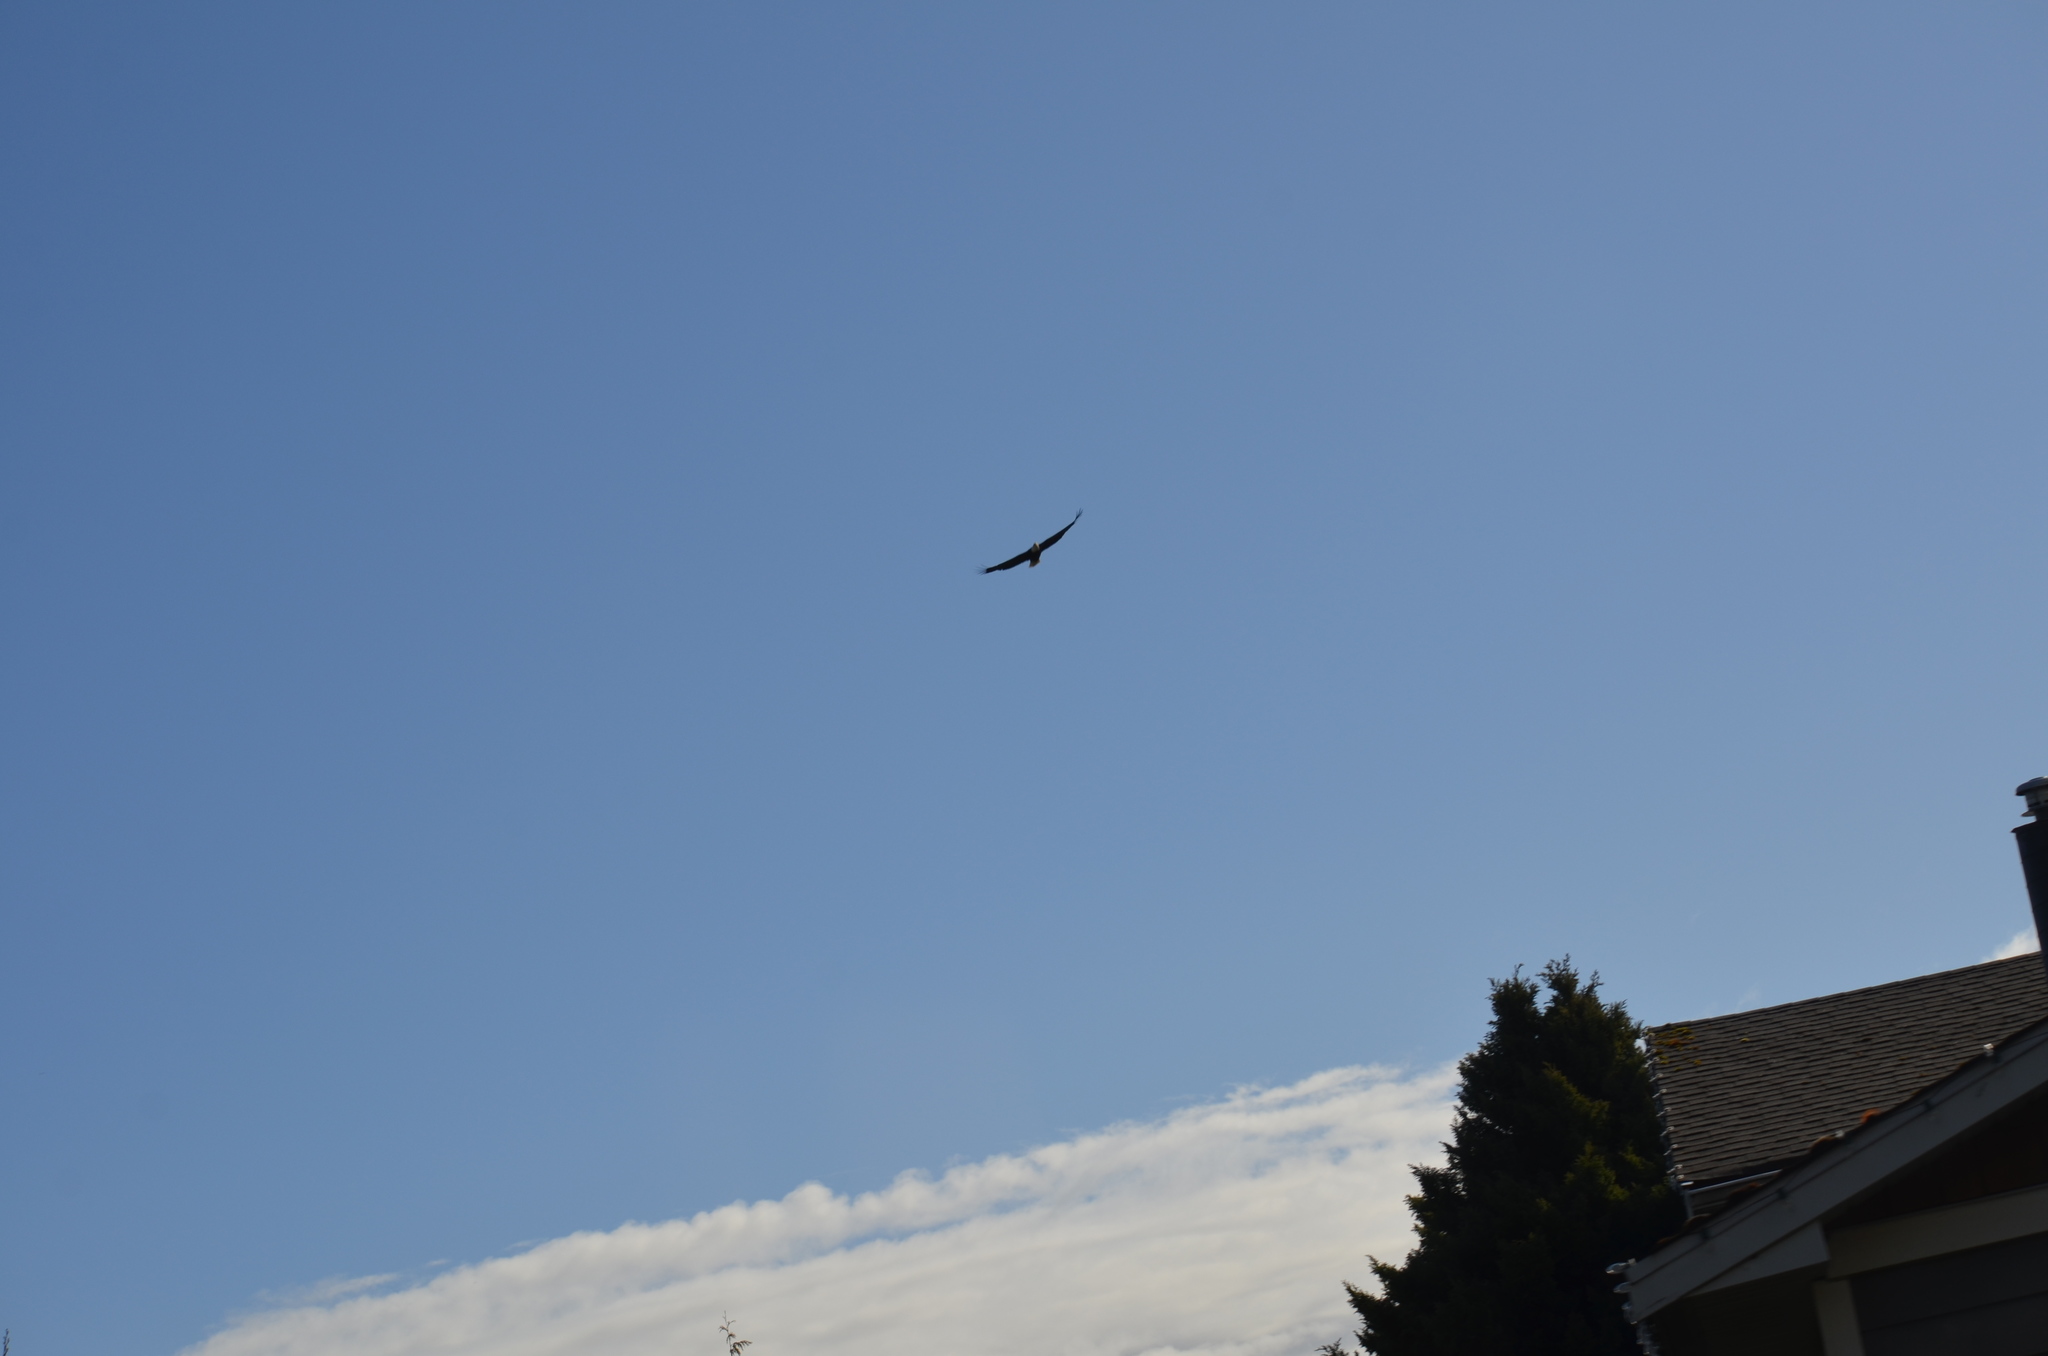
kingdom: Animalia
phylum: Chordata
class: Aves
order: Accipitriformes
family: Accipitridae
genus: Haliaeetus
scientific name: Haliaeetus leucocephalus
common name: Bald eagle
